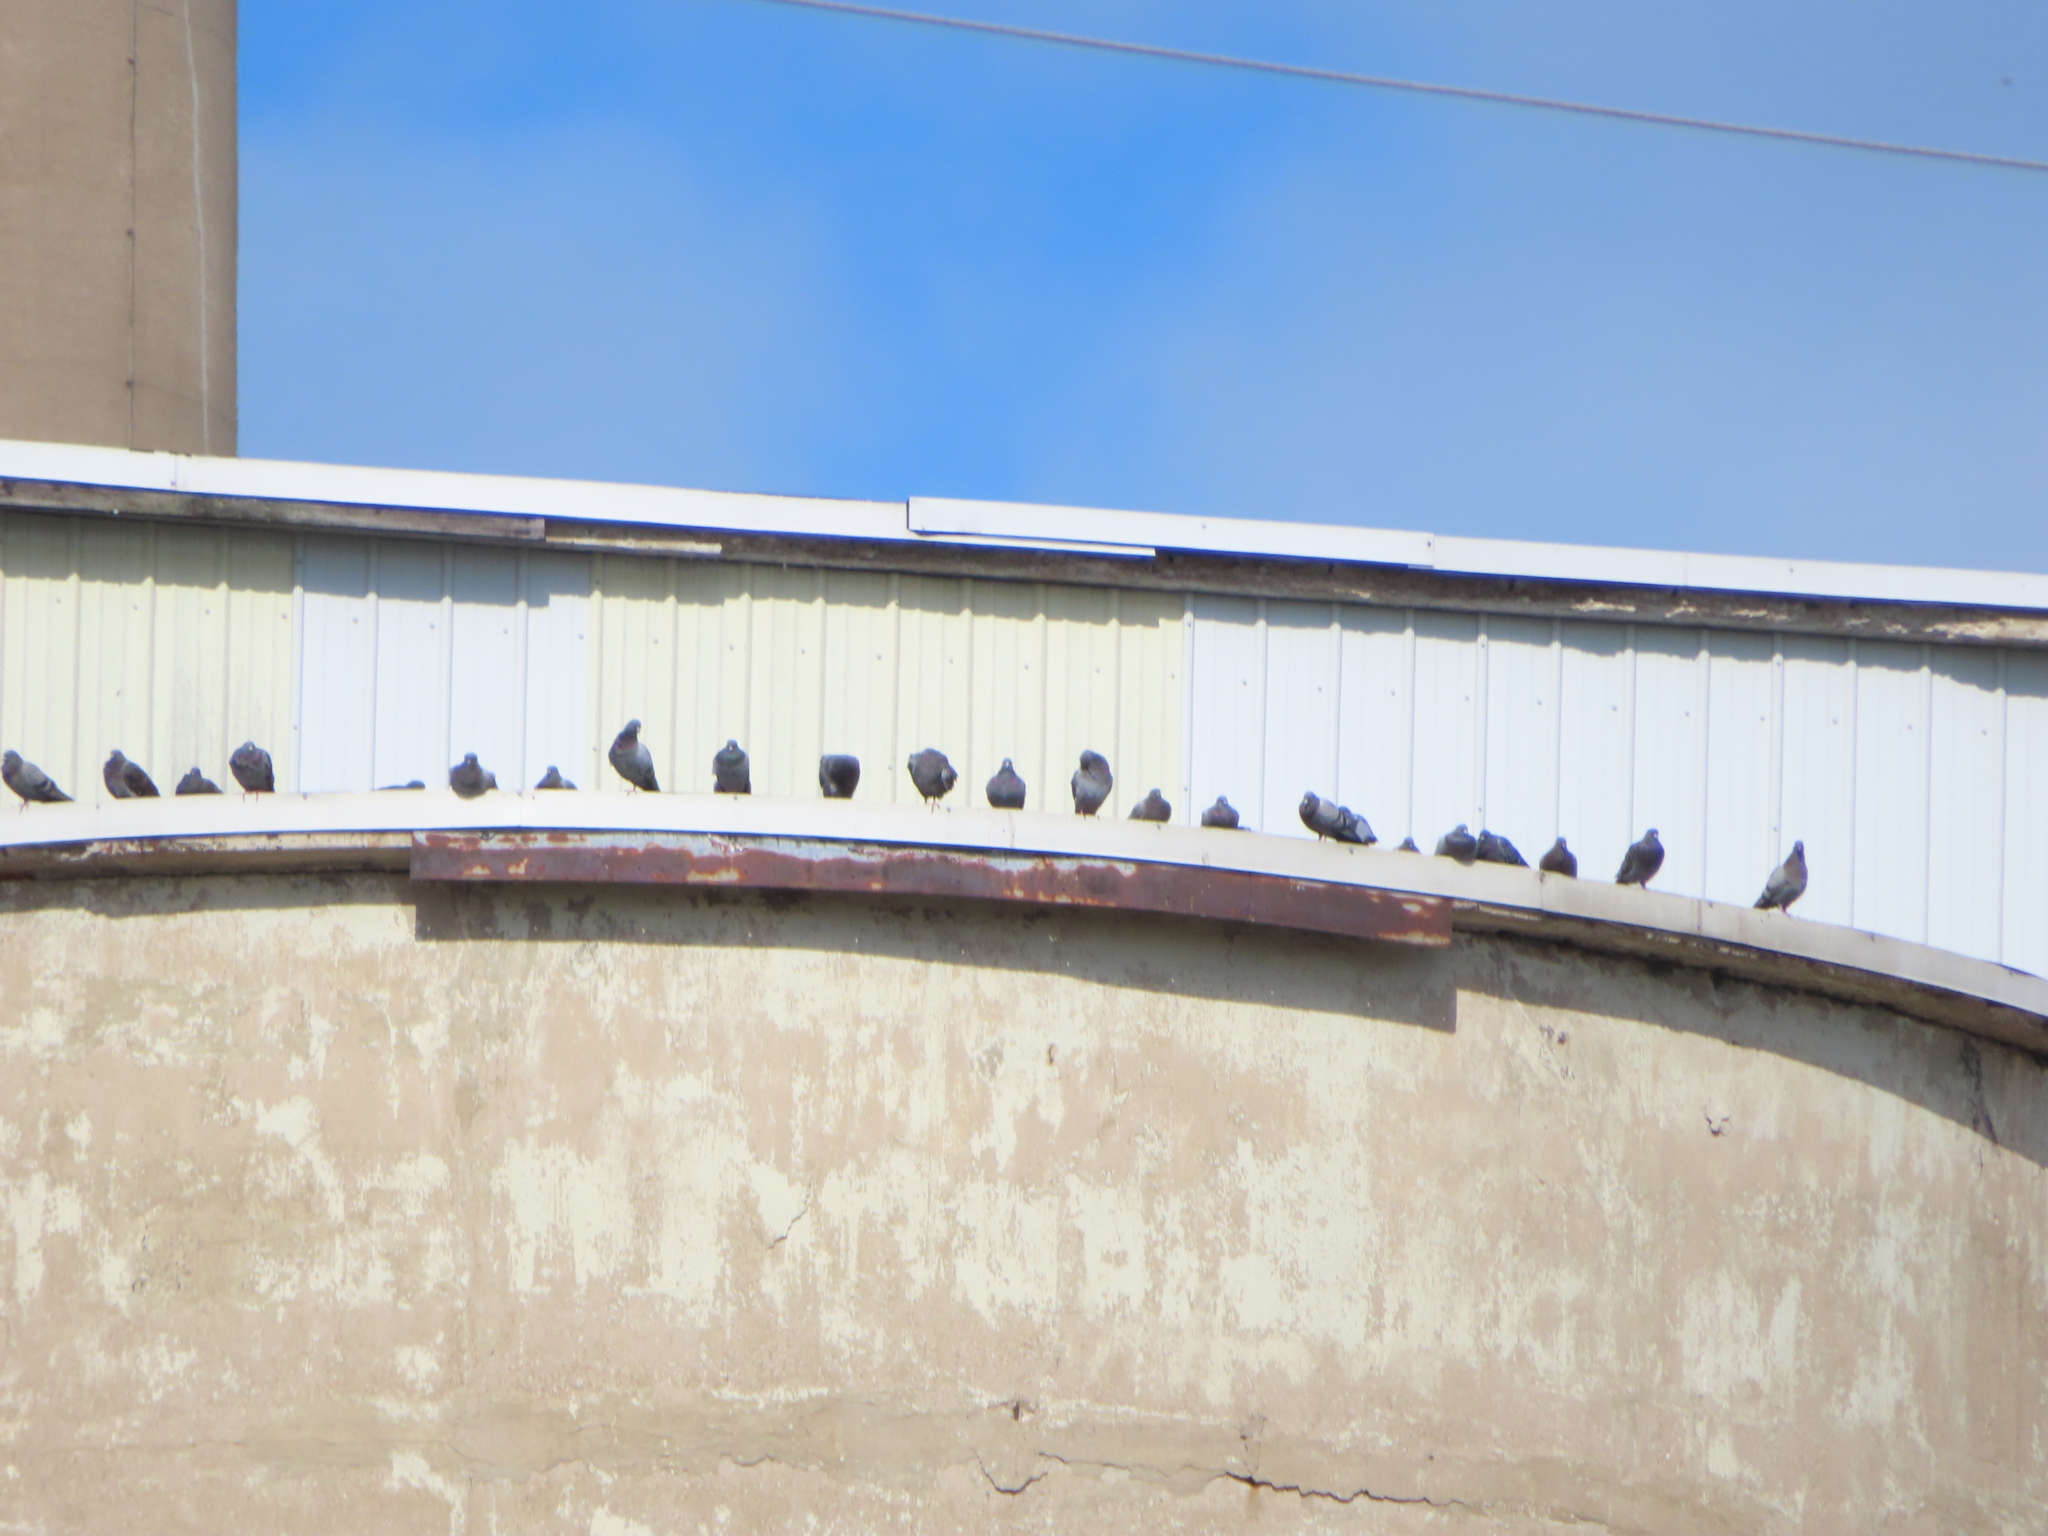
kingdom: Animalia
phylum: Chordata
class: Aves
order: Columbiformes
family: Columbidae
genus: Columba
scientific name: Columba livia
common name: Rock pigeon
